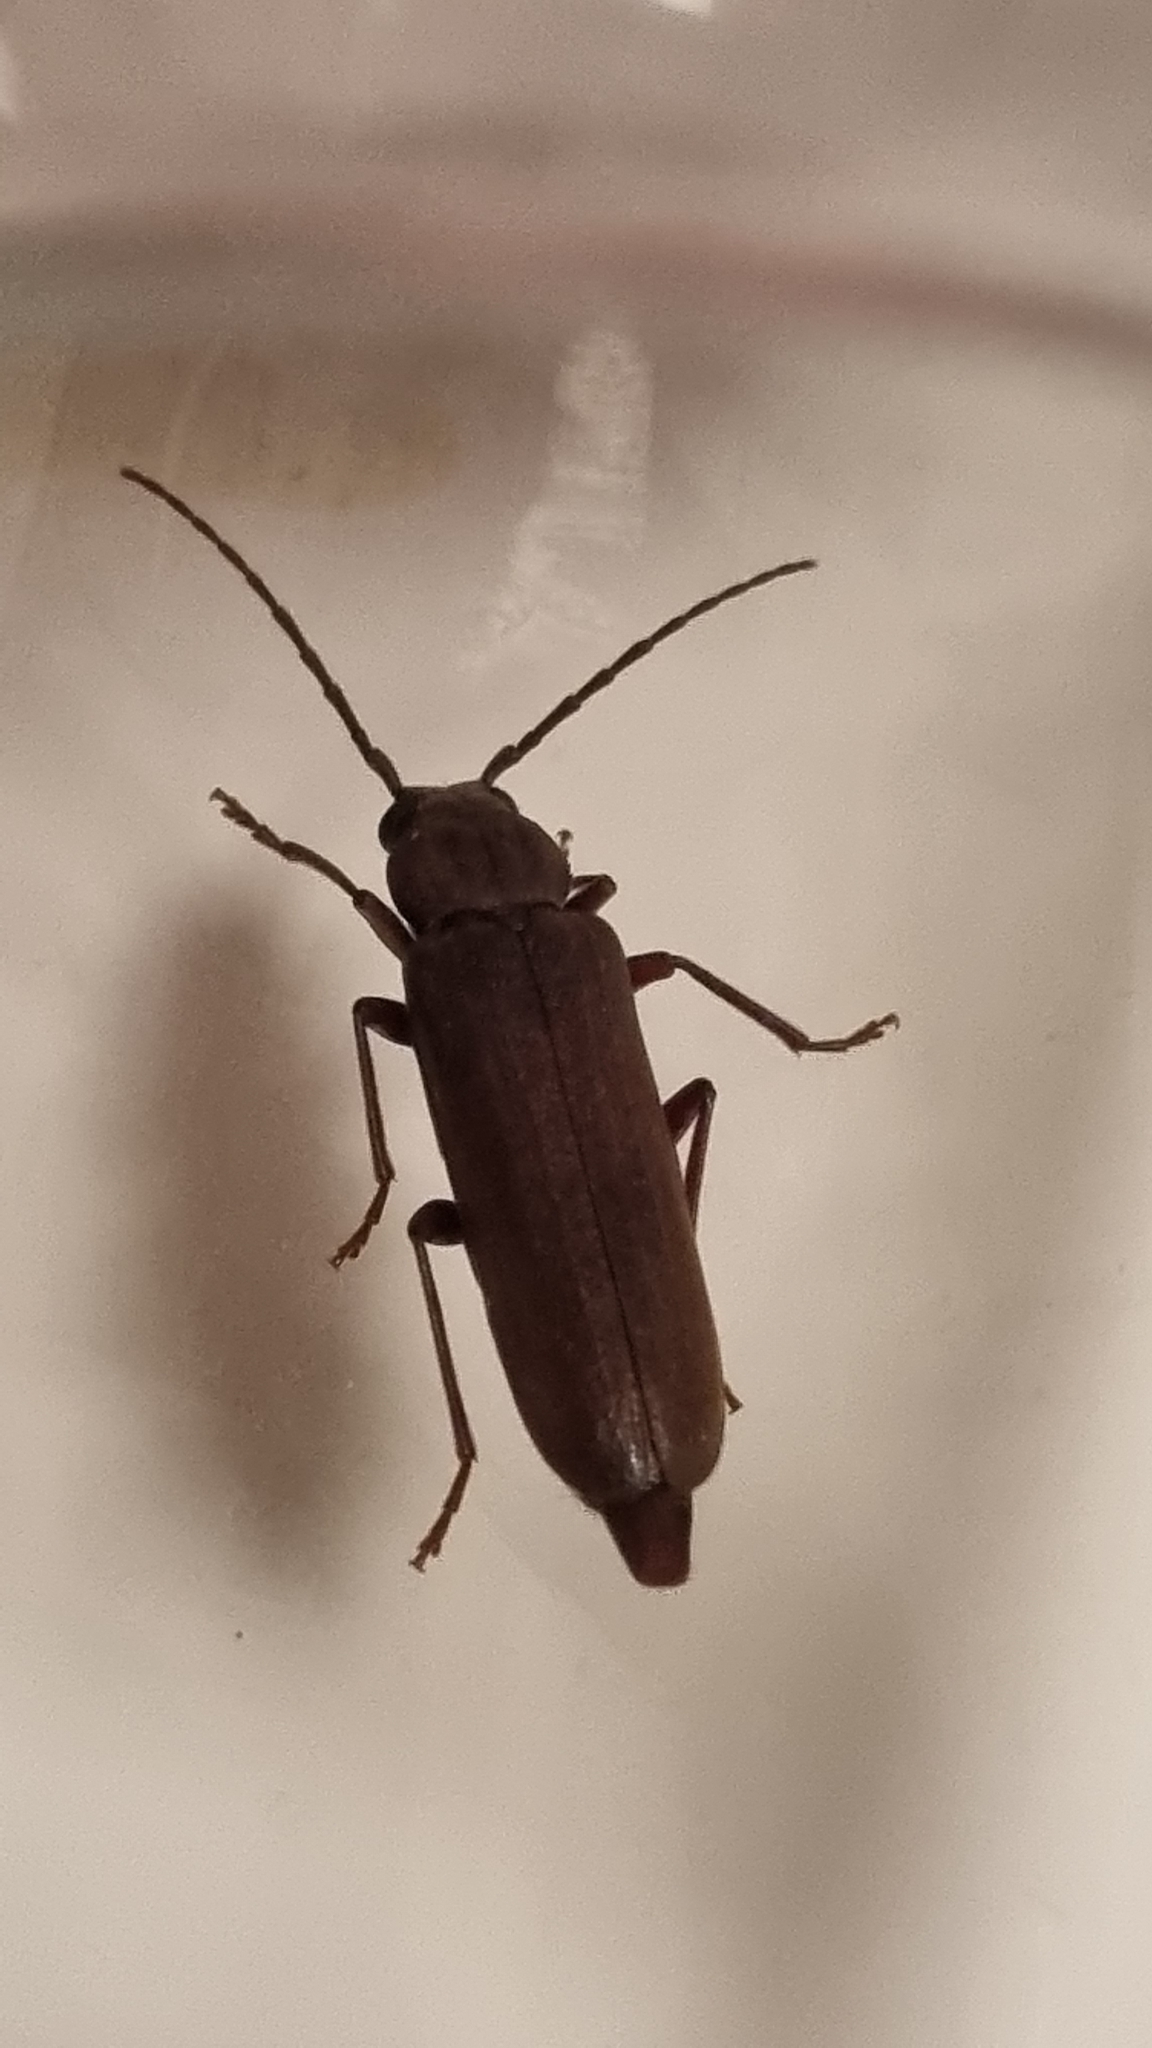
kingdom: Animalia
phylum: Arthropoda
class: Insecta
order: Coleoptera
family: Cerambycidae
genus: Arhopalus
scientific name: Arhopalus rusticus
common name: Rust pine borer
